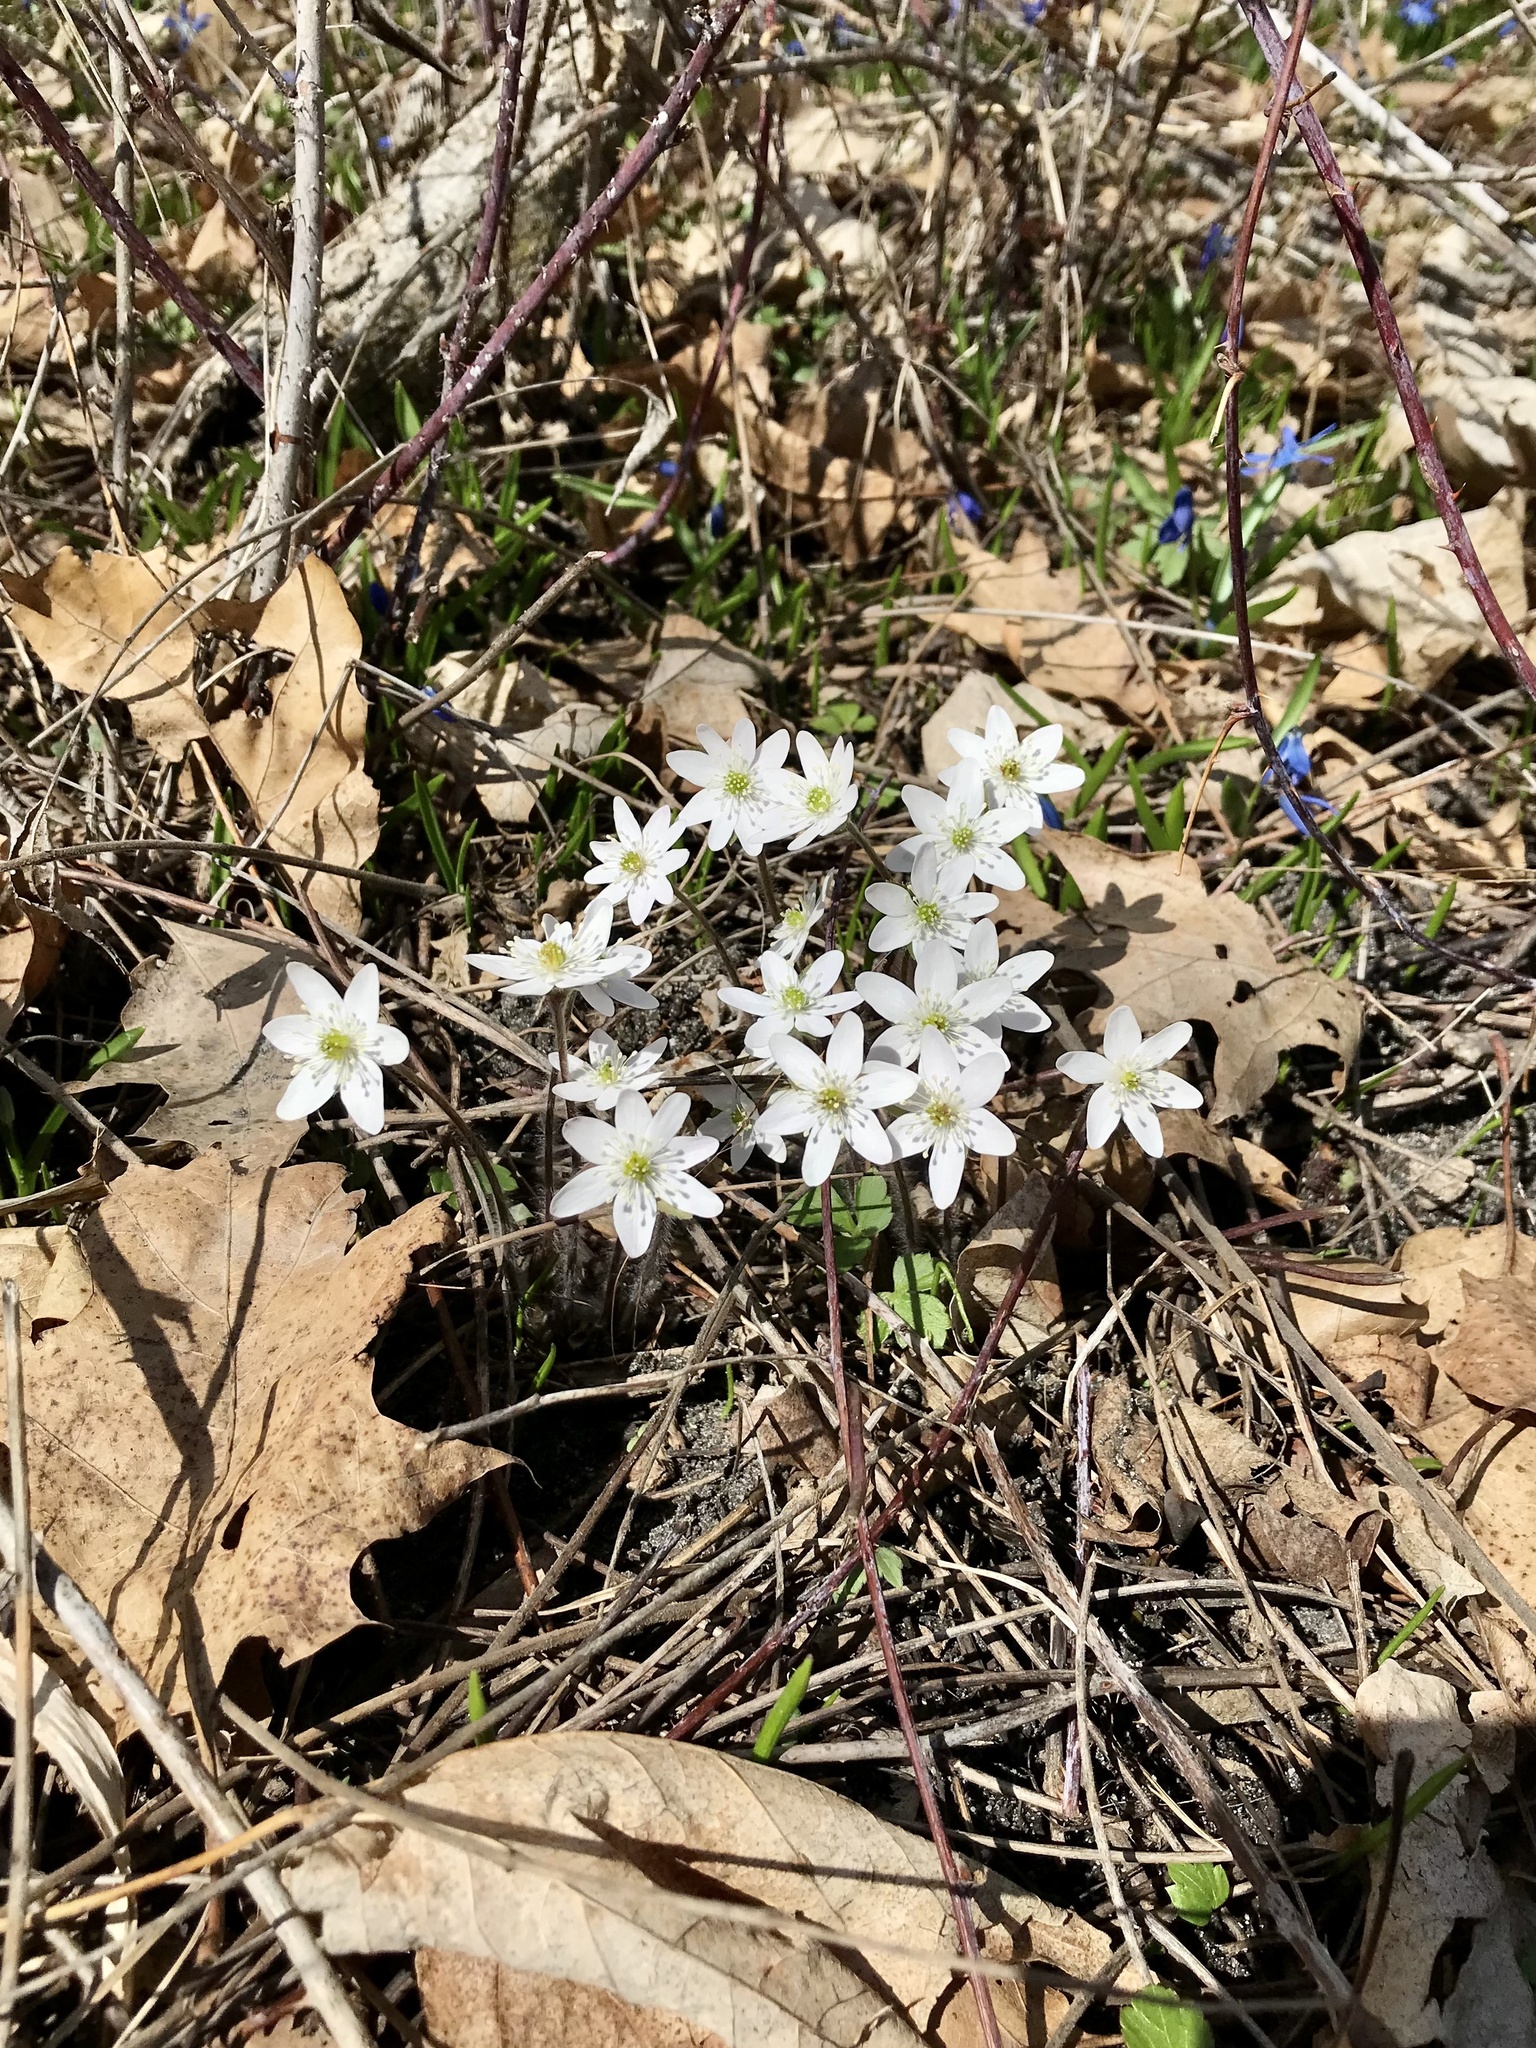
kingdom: Plantae
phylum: Tracheophyta
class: Magnoliopsida
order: Ranunculales
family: Ranunculaceae
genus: Hepatica
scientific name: Hepatica acutiloba
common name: Sharp-lobed hepatica
